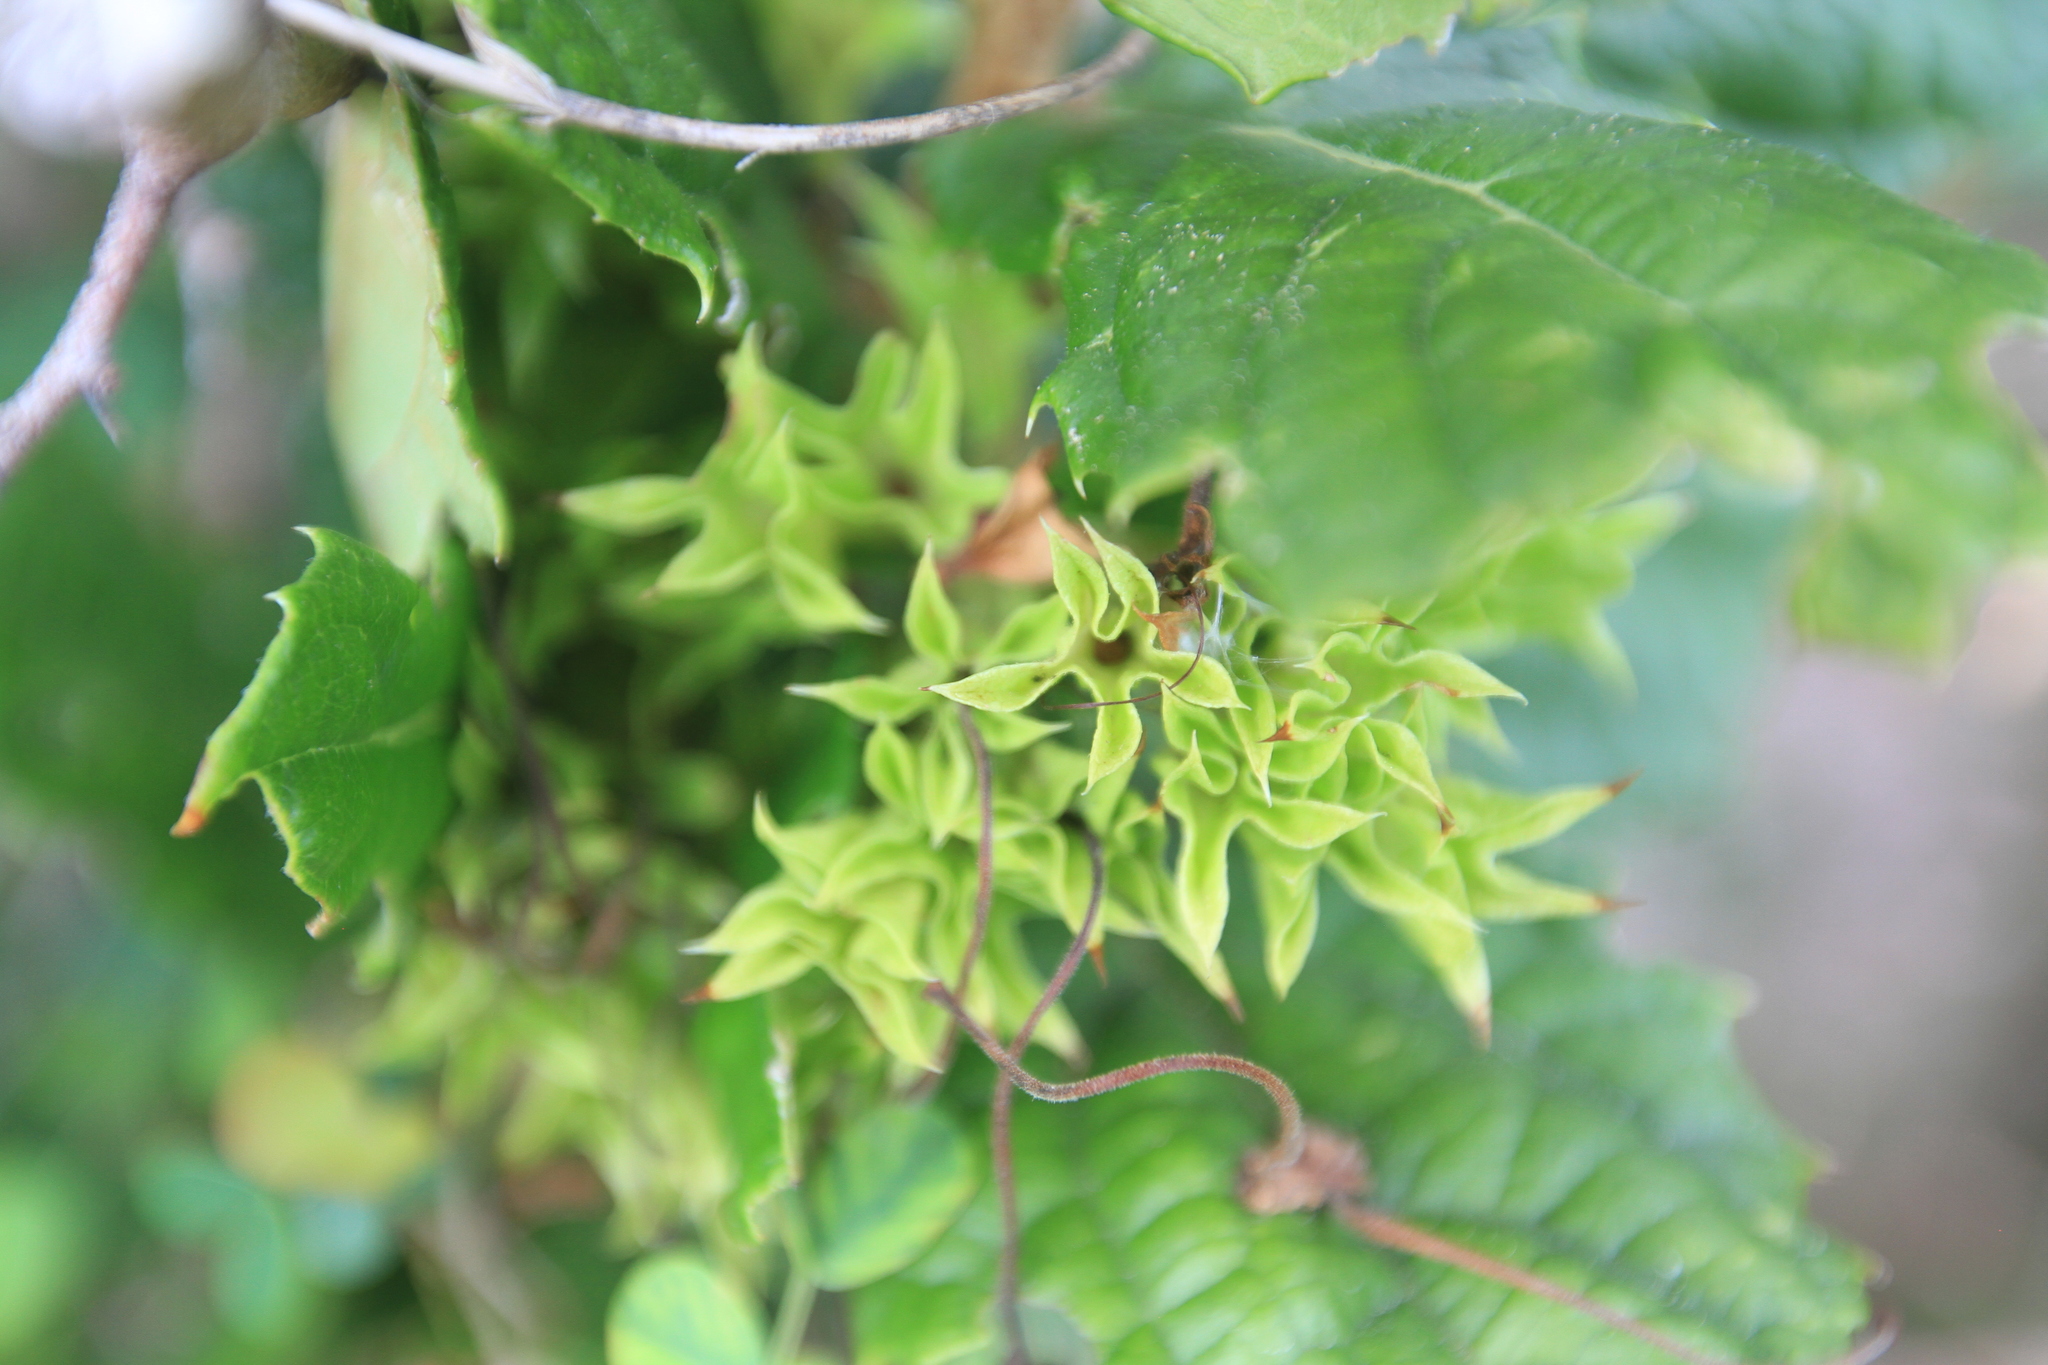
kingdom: Plantae
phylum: Tracheophyta
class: Magnoliopsida
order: Lamiales
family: Lamiaceae
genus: Ovieda
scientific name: Ovieda spinosa
